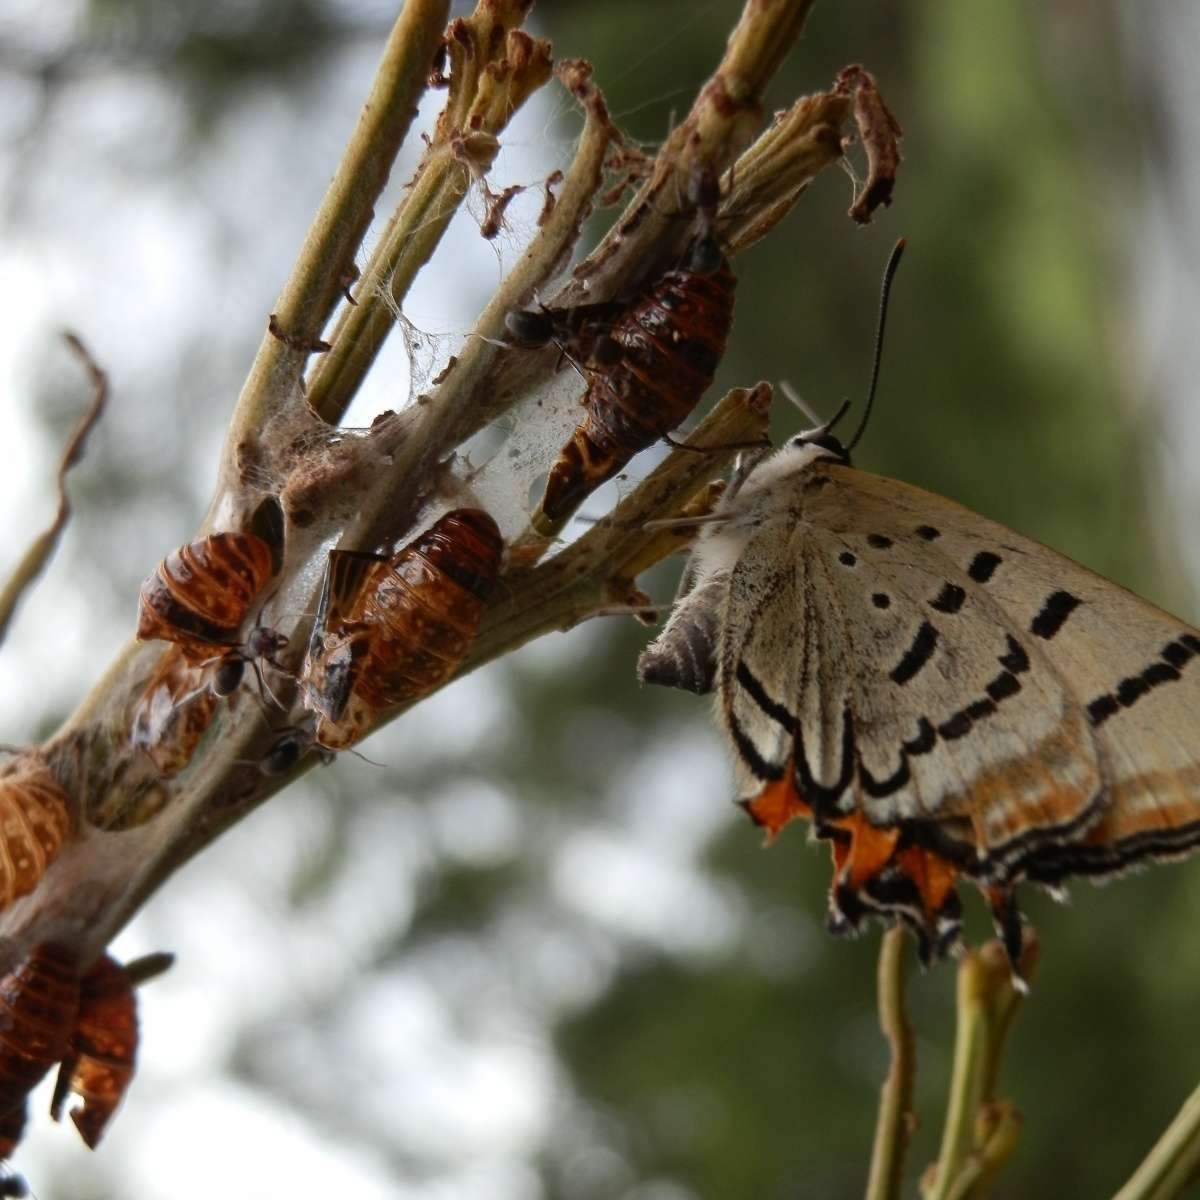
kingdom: Animalia
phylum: Arthropoda
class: Insecta
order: Lepidoptera
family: Lycaenidae
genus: Jalmenus
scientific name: Jalmenus evagoras
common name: Common imperial blue
